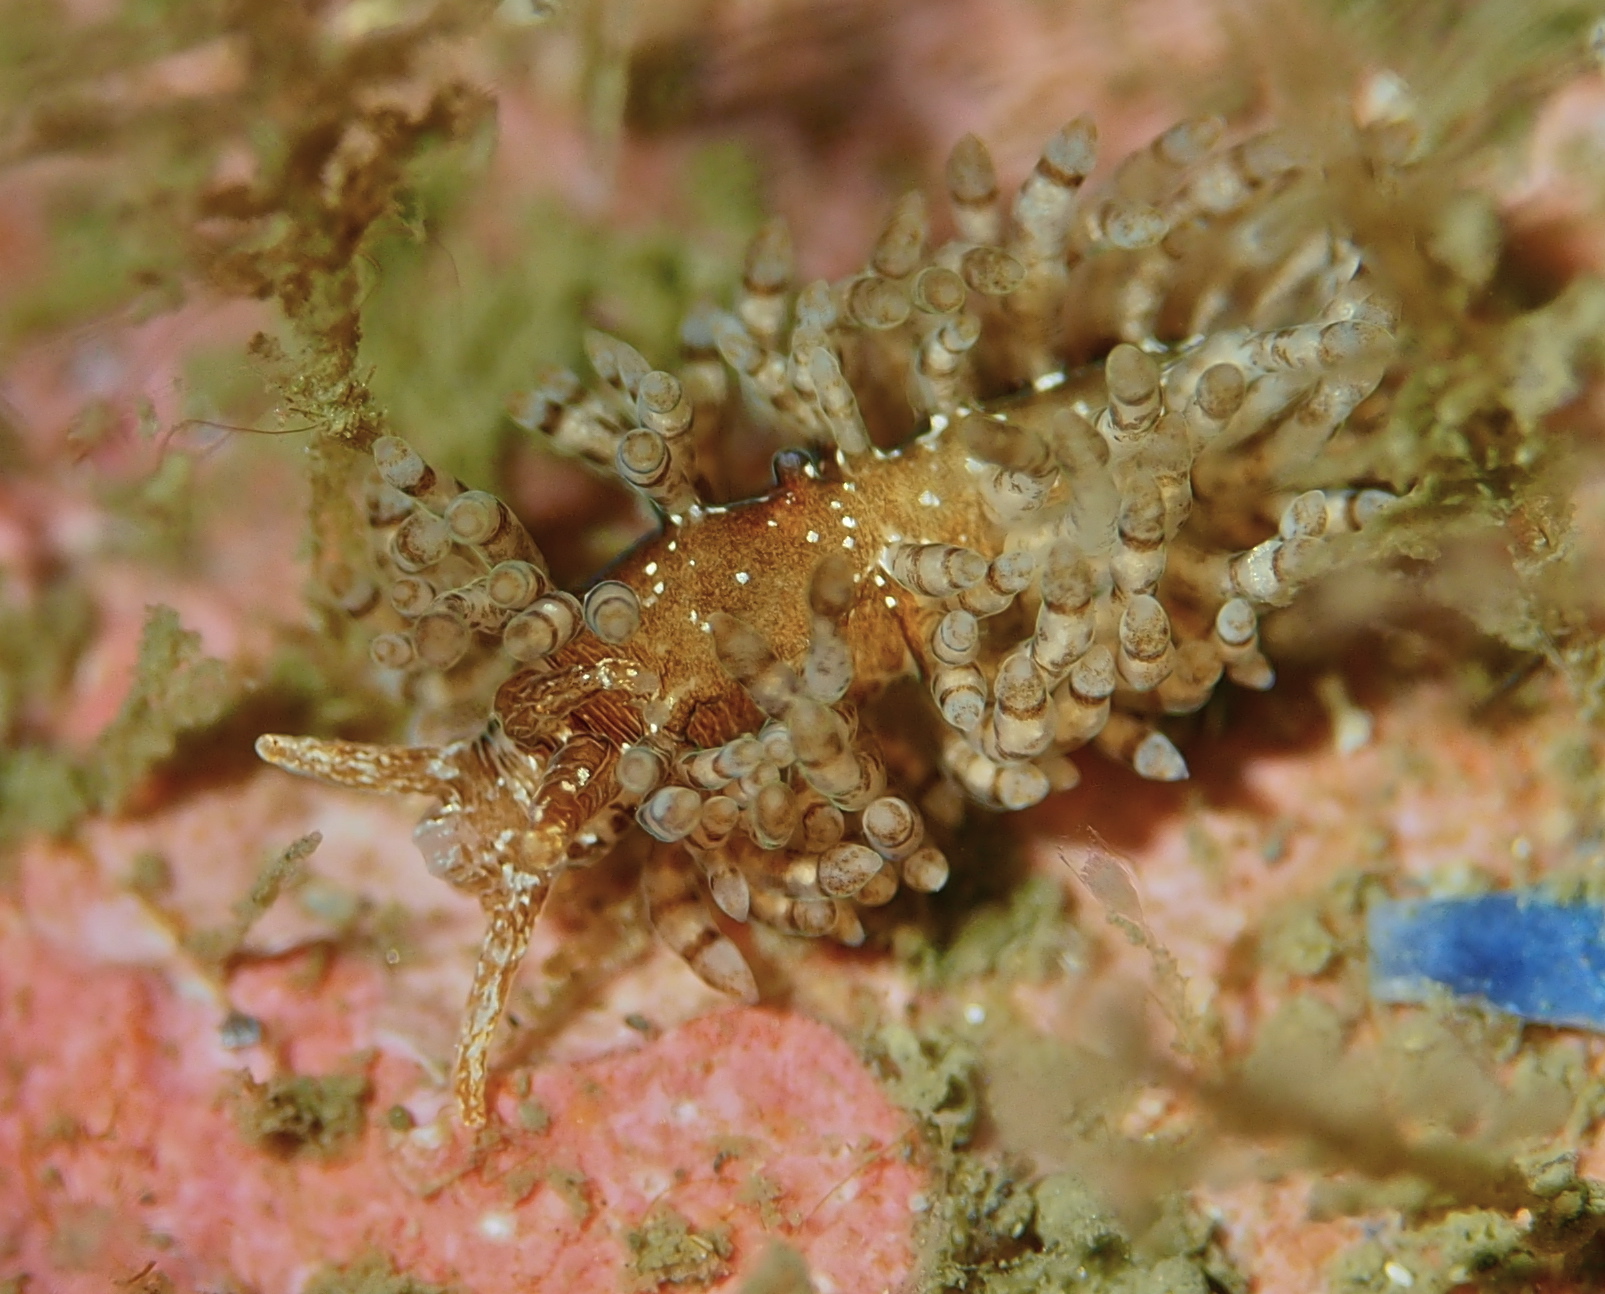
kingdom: Animalia
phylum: Mollusca
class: Gastropoda
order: Nudibranchia
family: Eubranchidae
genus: Eubranchus
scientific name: Eubranchus vittatus
